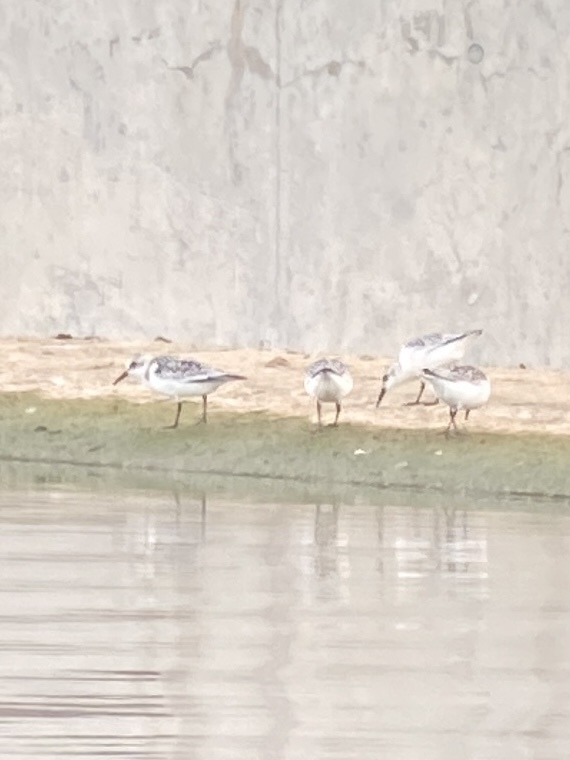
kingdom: Animalia
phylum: Chordata
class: Aves
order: Charadriiformes
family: Scolopacidae
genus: Calidris
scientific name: Calidris alba
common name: Sanderling
